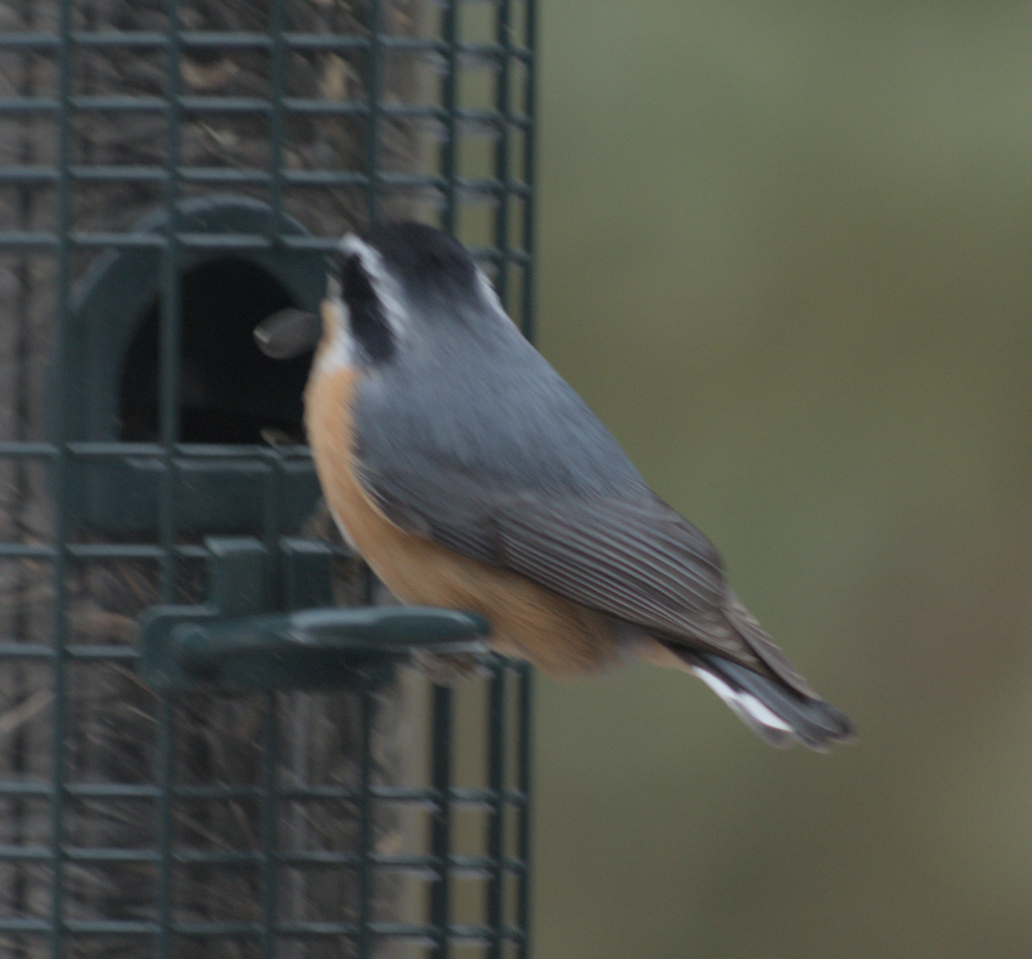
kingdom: Animalia
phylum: Chordata
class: Aves
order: Passeriformes
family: Sittidae
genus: Sitta
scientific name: Sitta canadensis
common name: Red-breasted nuthatch
